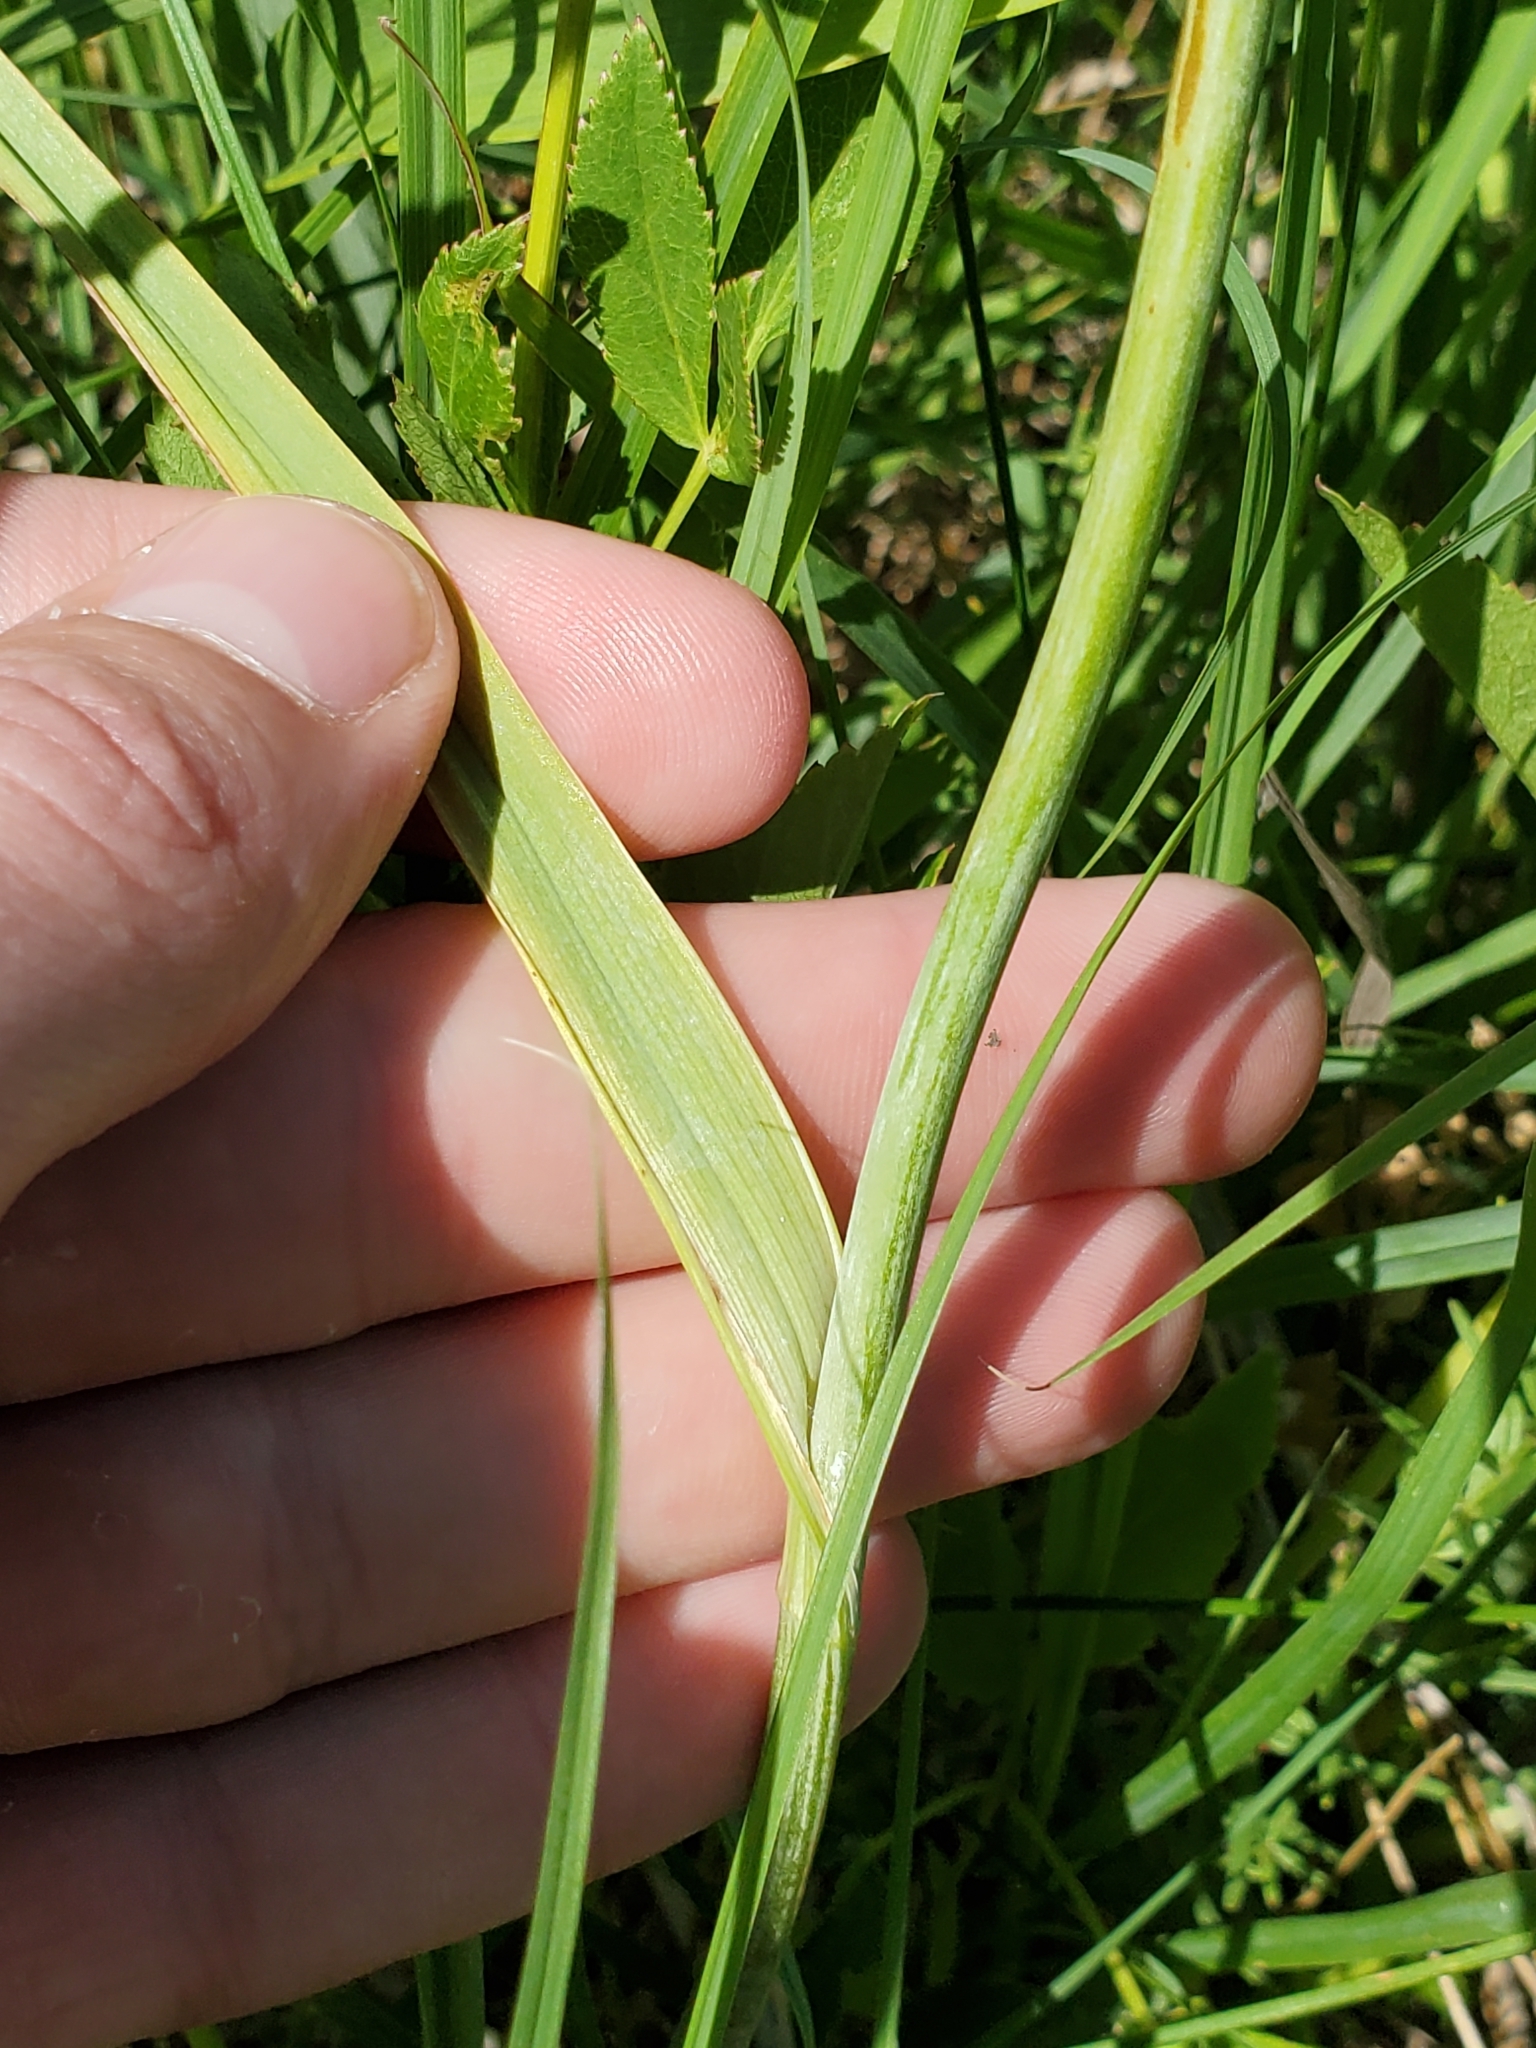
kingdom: Plantae
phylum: Tracheophyta
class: Liliopsida
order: Liliales
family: Melanthiaceae
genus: Anticlea
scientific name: Anticlea elegans
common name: Mountain death camas
